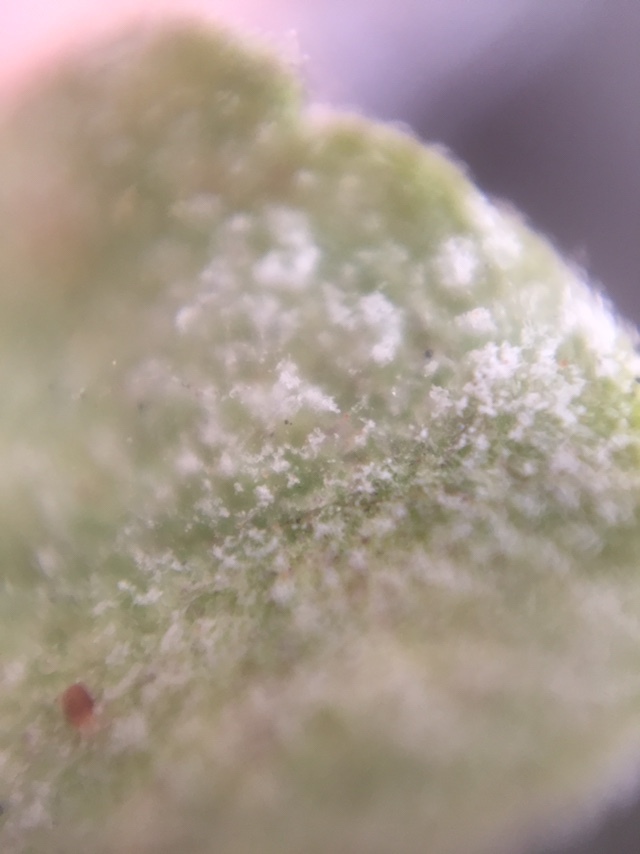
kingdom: Fungi
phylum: Ascomycota
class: Leotiomycetes
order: Helotiales
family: Erysiphaceae
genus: Golovinomyces
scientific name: Golovinomyces ocimi
